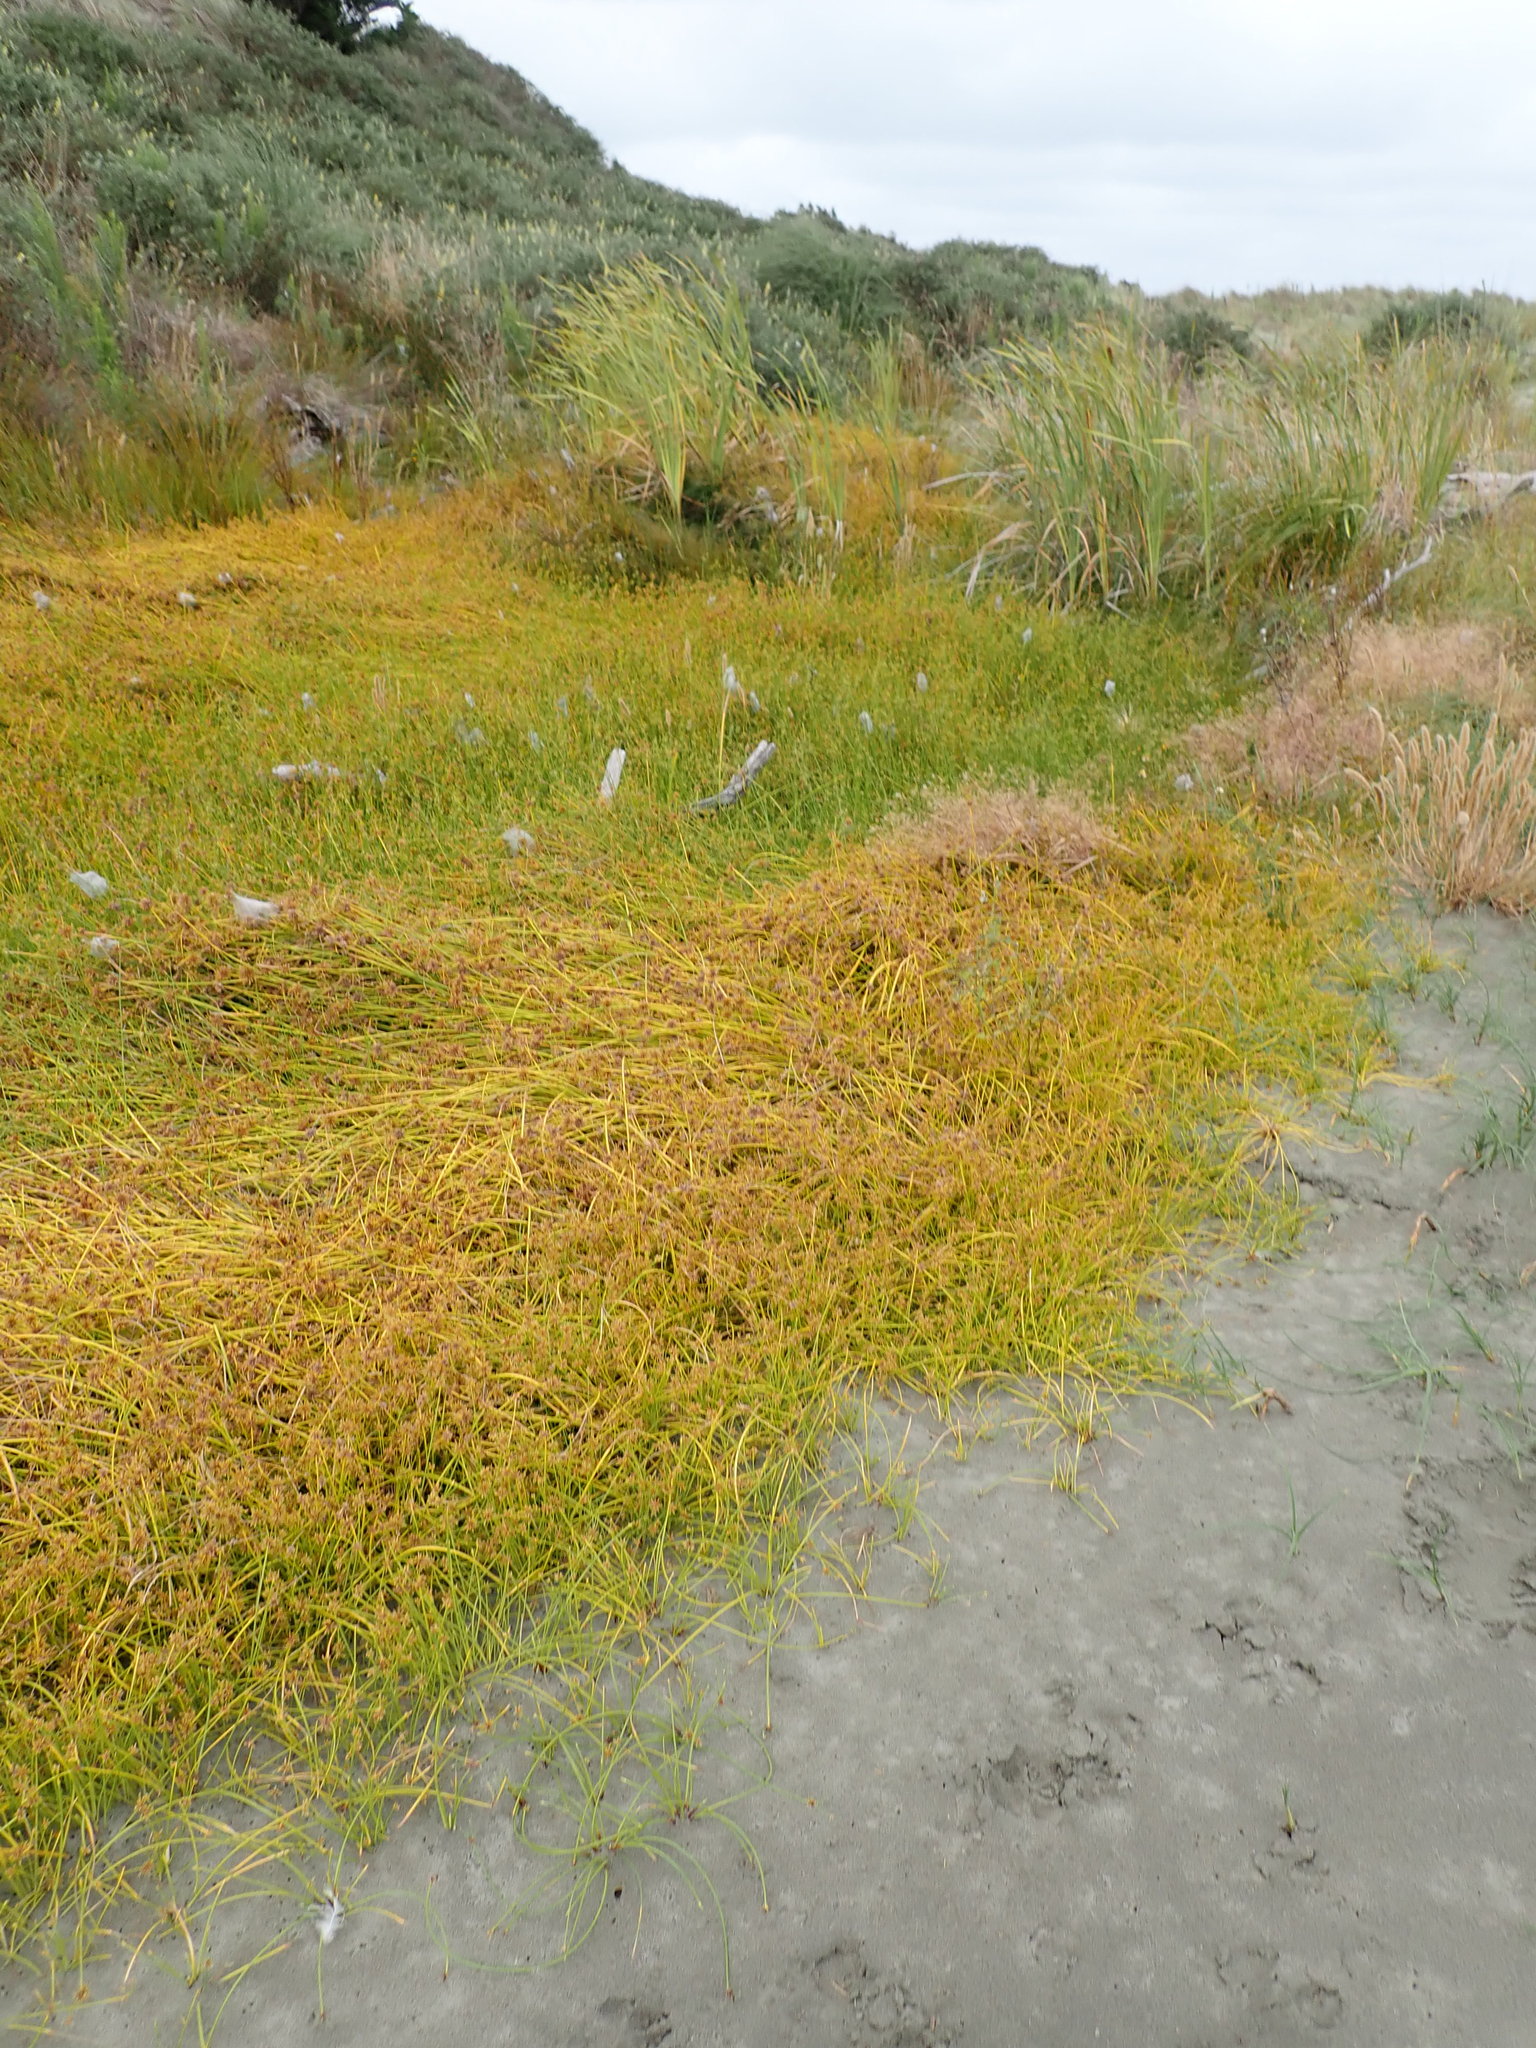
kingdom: Plantae
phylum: Tracheophyta
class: Liliopsida
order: Poales
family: Cyperaceae
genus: Isolepis
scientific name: Isolepis prolifera
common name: Proliferating bulrush
